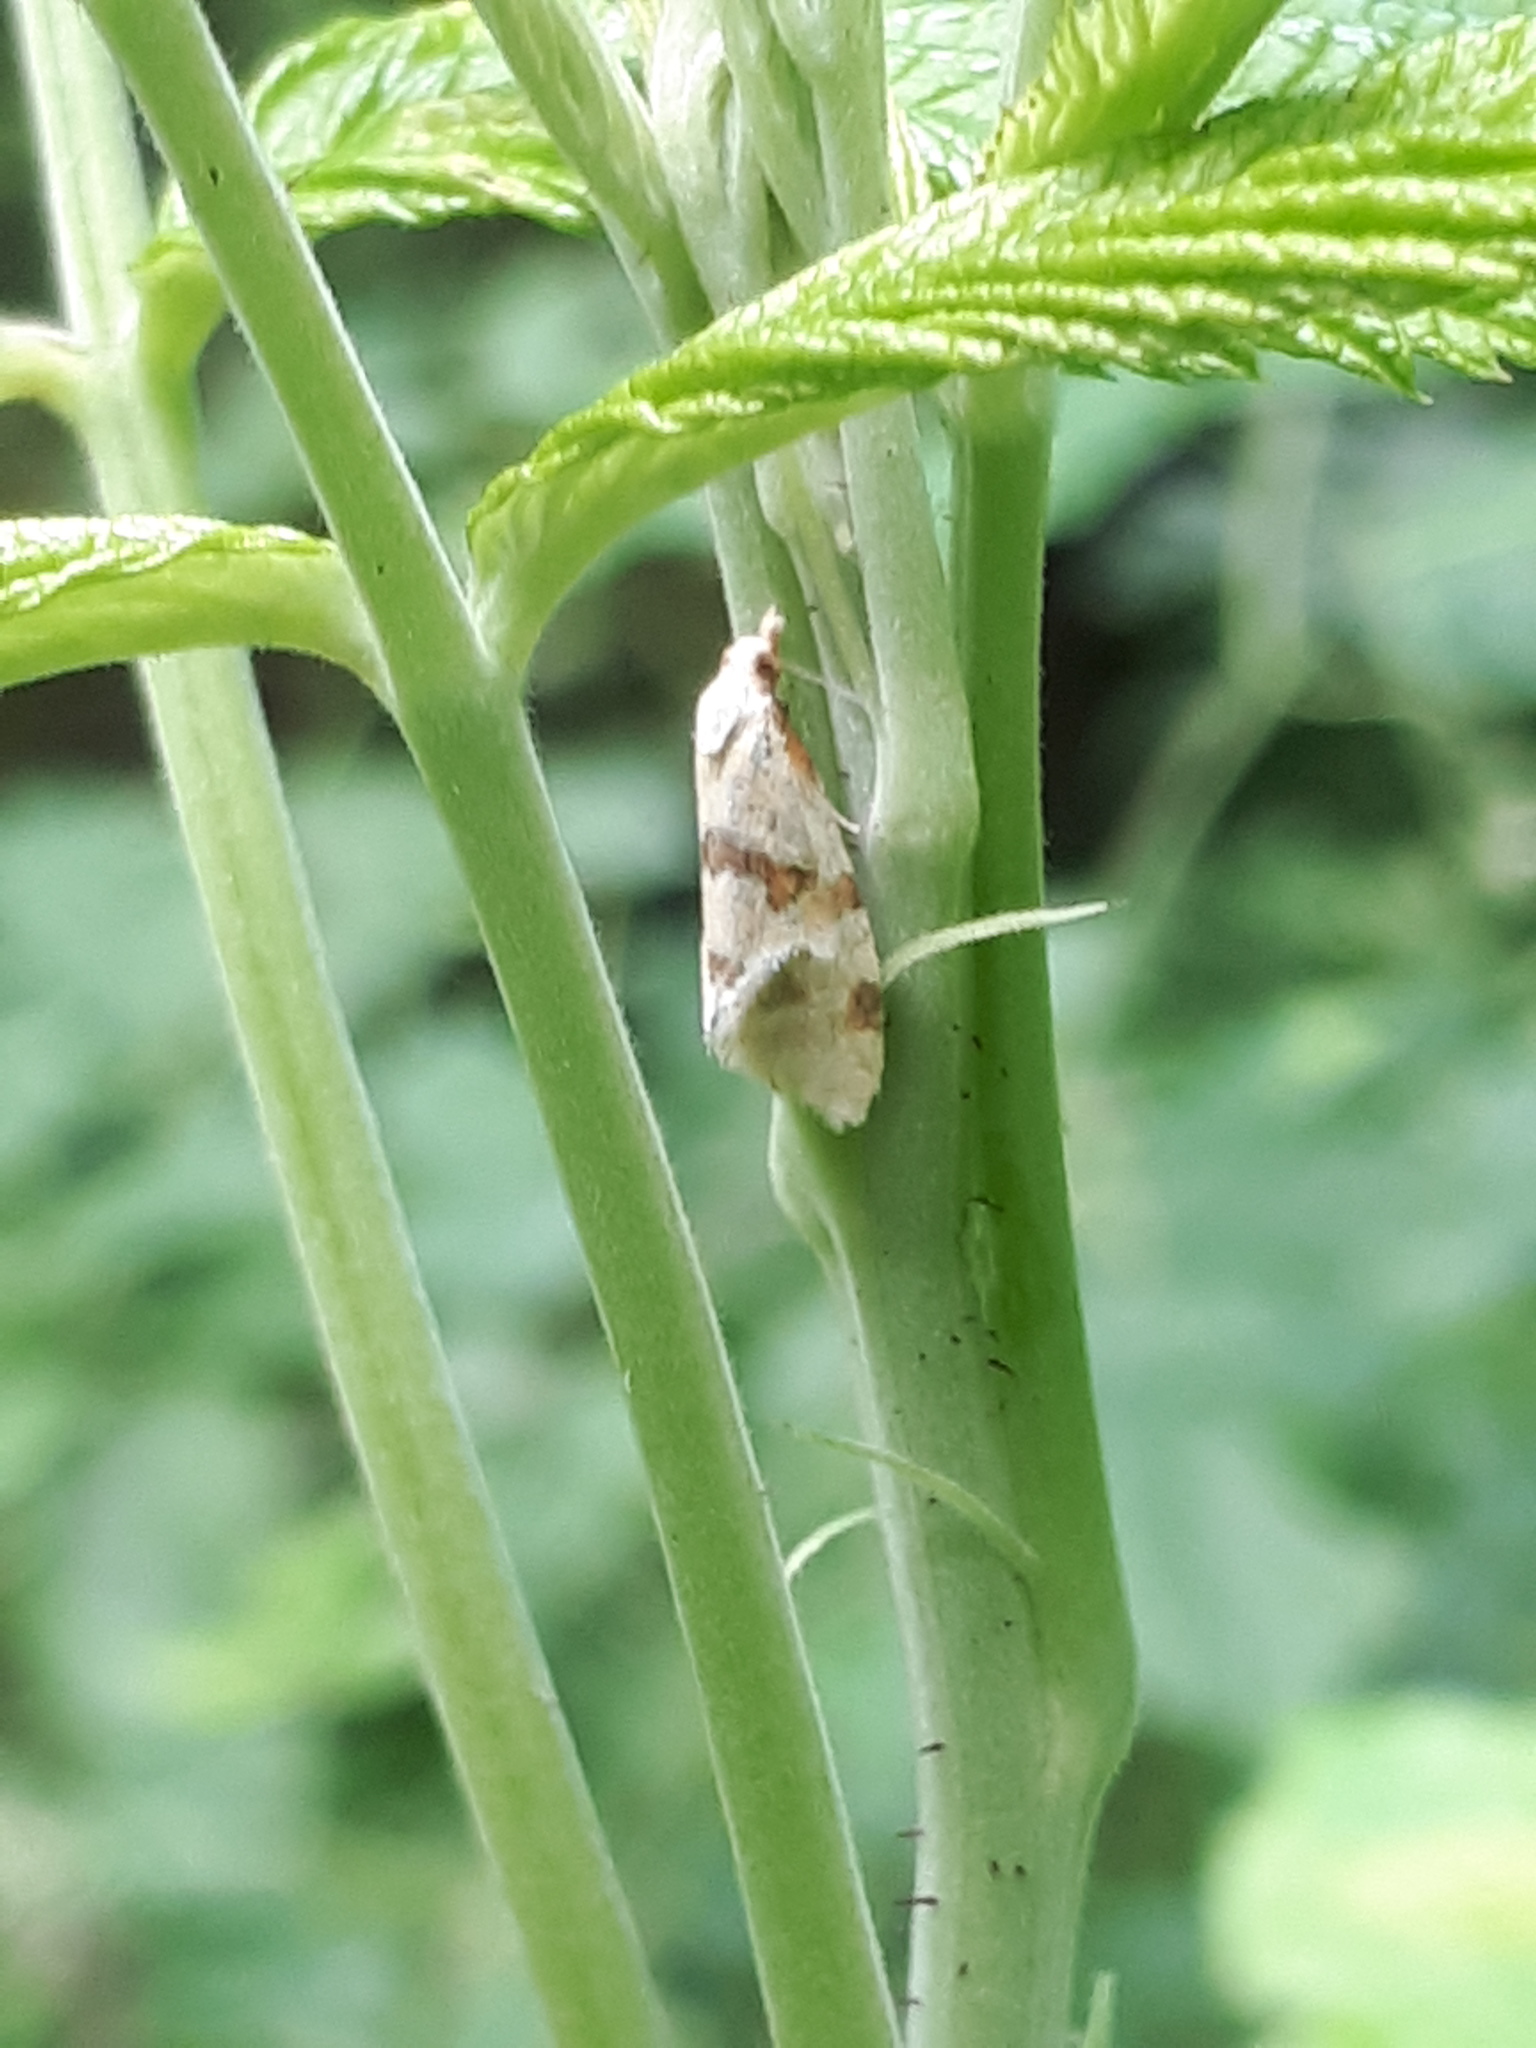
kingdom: Animalia
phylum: Arthropoda
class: Insecta
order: Lepidoptera
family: Tortricidae
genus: Aethes
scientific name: Aethes cnicana
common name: Thistle conch
